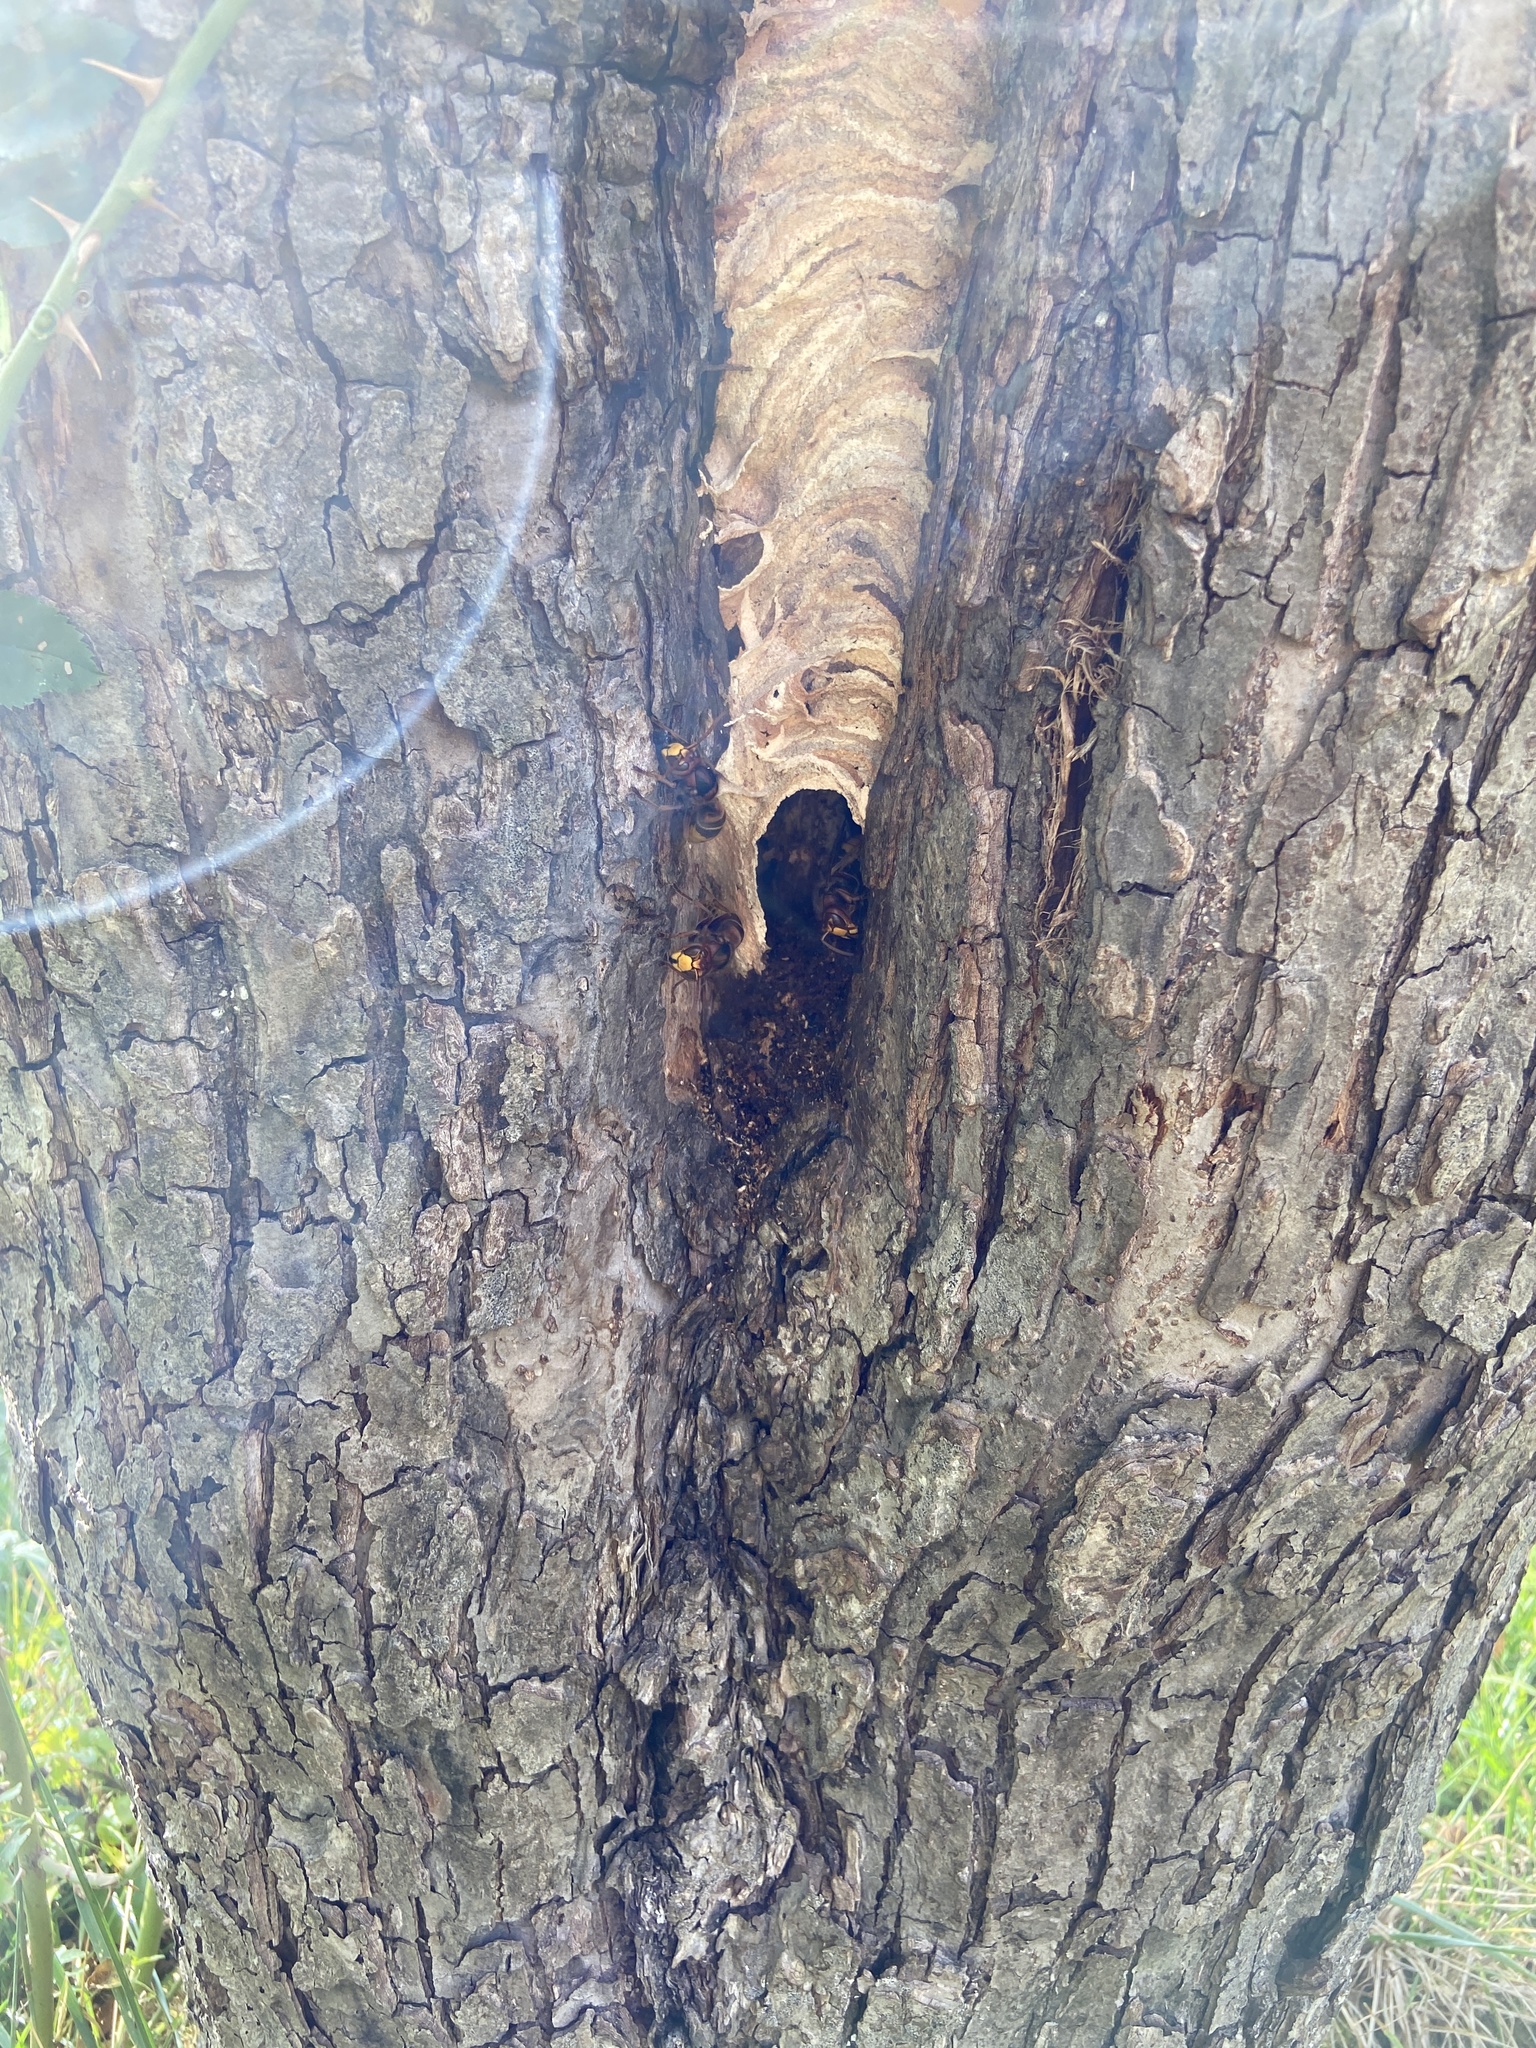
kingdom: Animalia
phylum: Arthropoda
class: Insecta
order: Hymenoptera
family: Vespidae
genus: Vespa
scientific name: Vespa crabro
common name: Hornet
